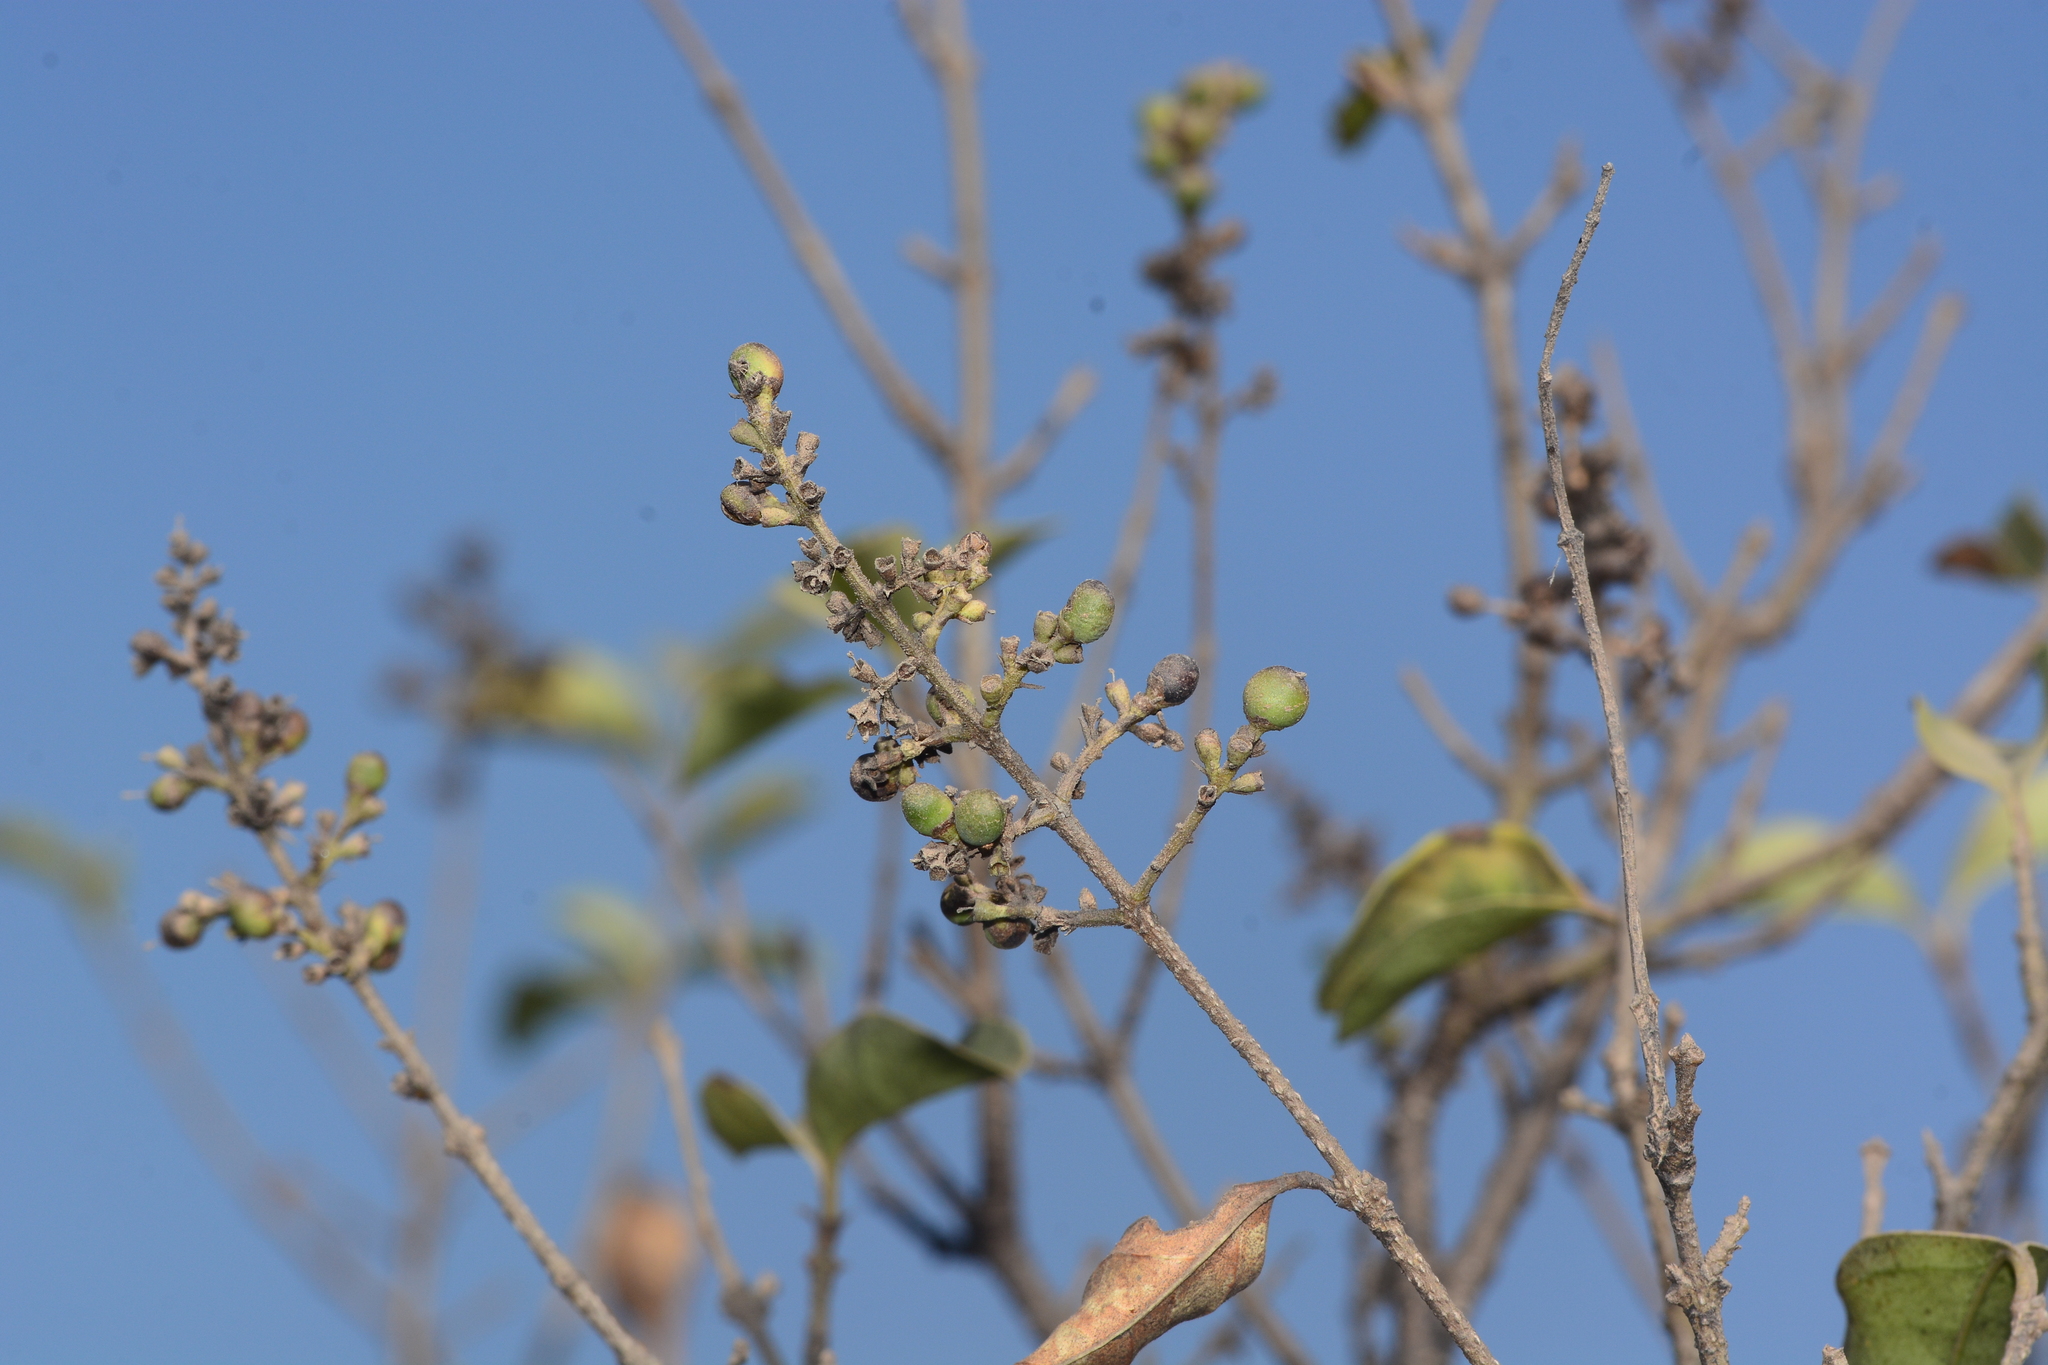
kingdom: Plantae
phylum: Tracheophyta
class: Magnoliopsida
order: Lamiales
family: Oleaceae
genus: Ligustrum
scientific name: Ligustrum robustum
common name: Tree privet
